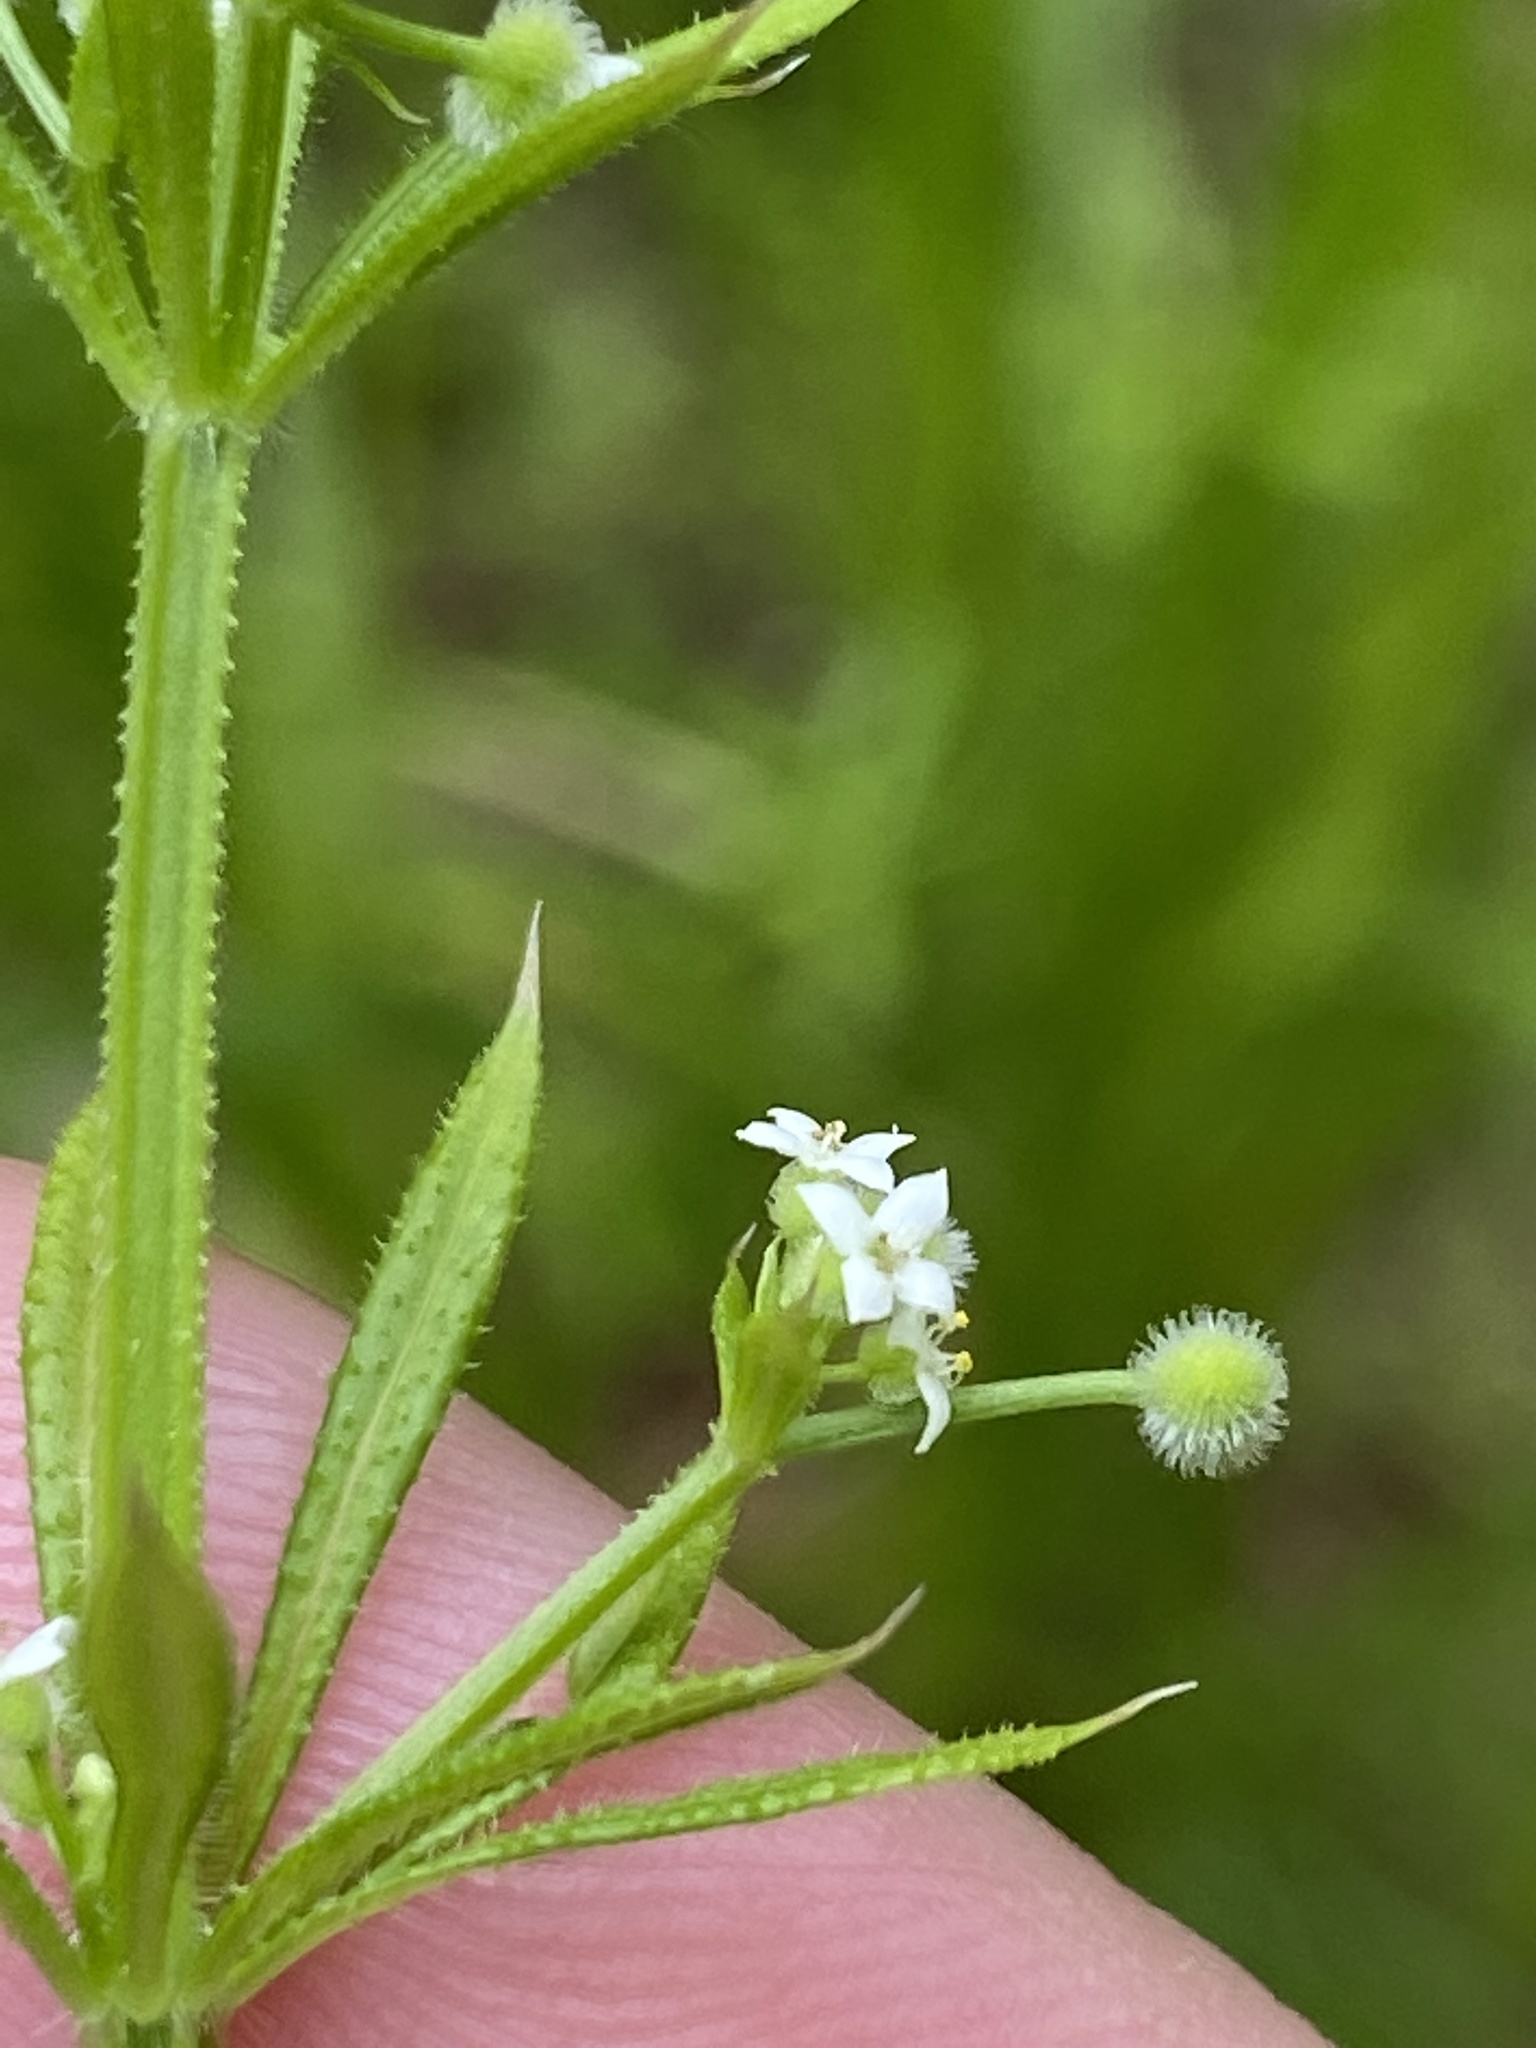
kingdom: Plantae
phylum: Tracheophyta
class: Magnoliopsida
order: Gentianales
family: Rubiaceae
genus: Galium
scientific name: Galium aparine
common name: Cleavers
